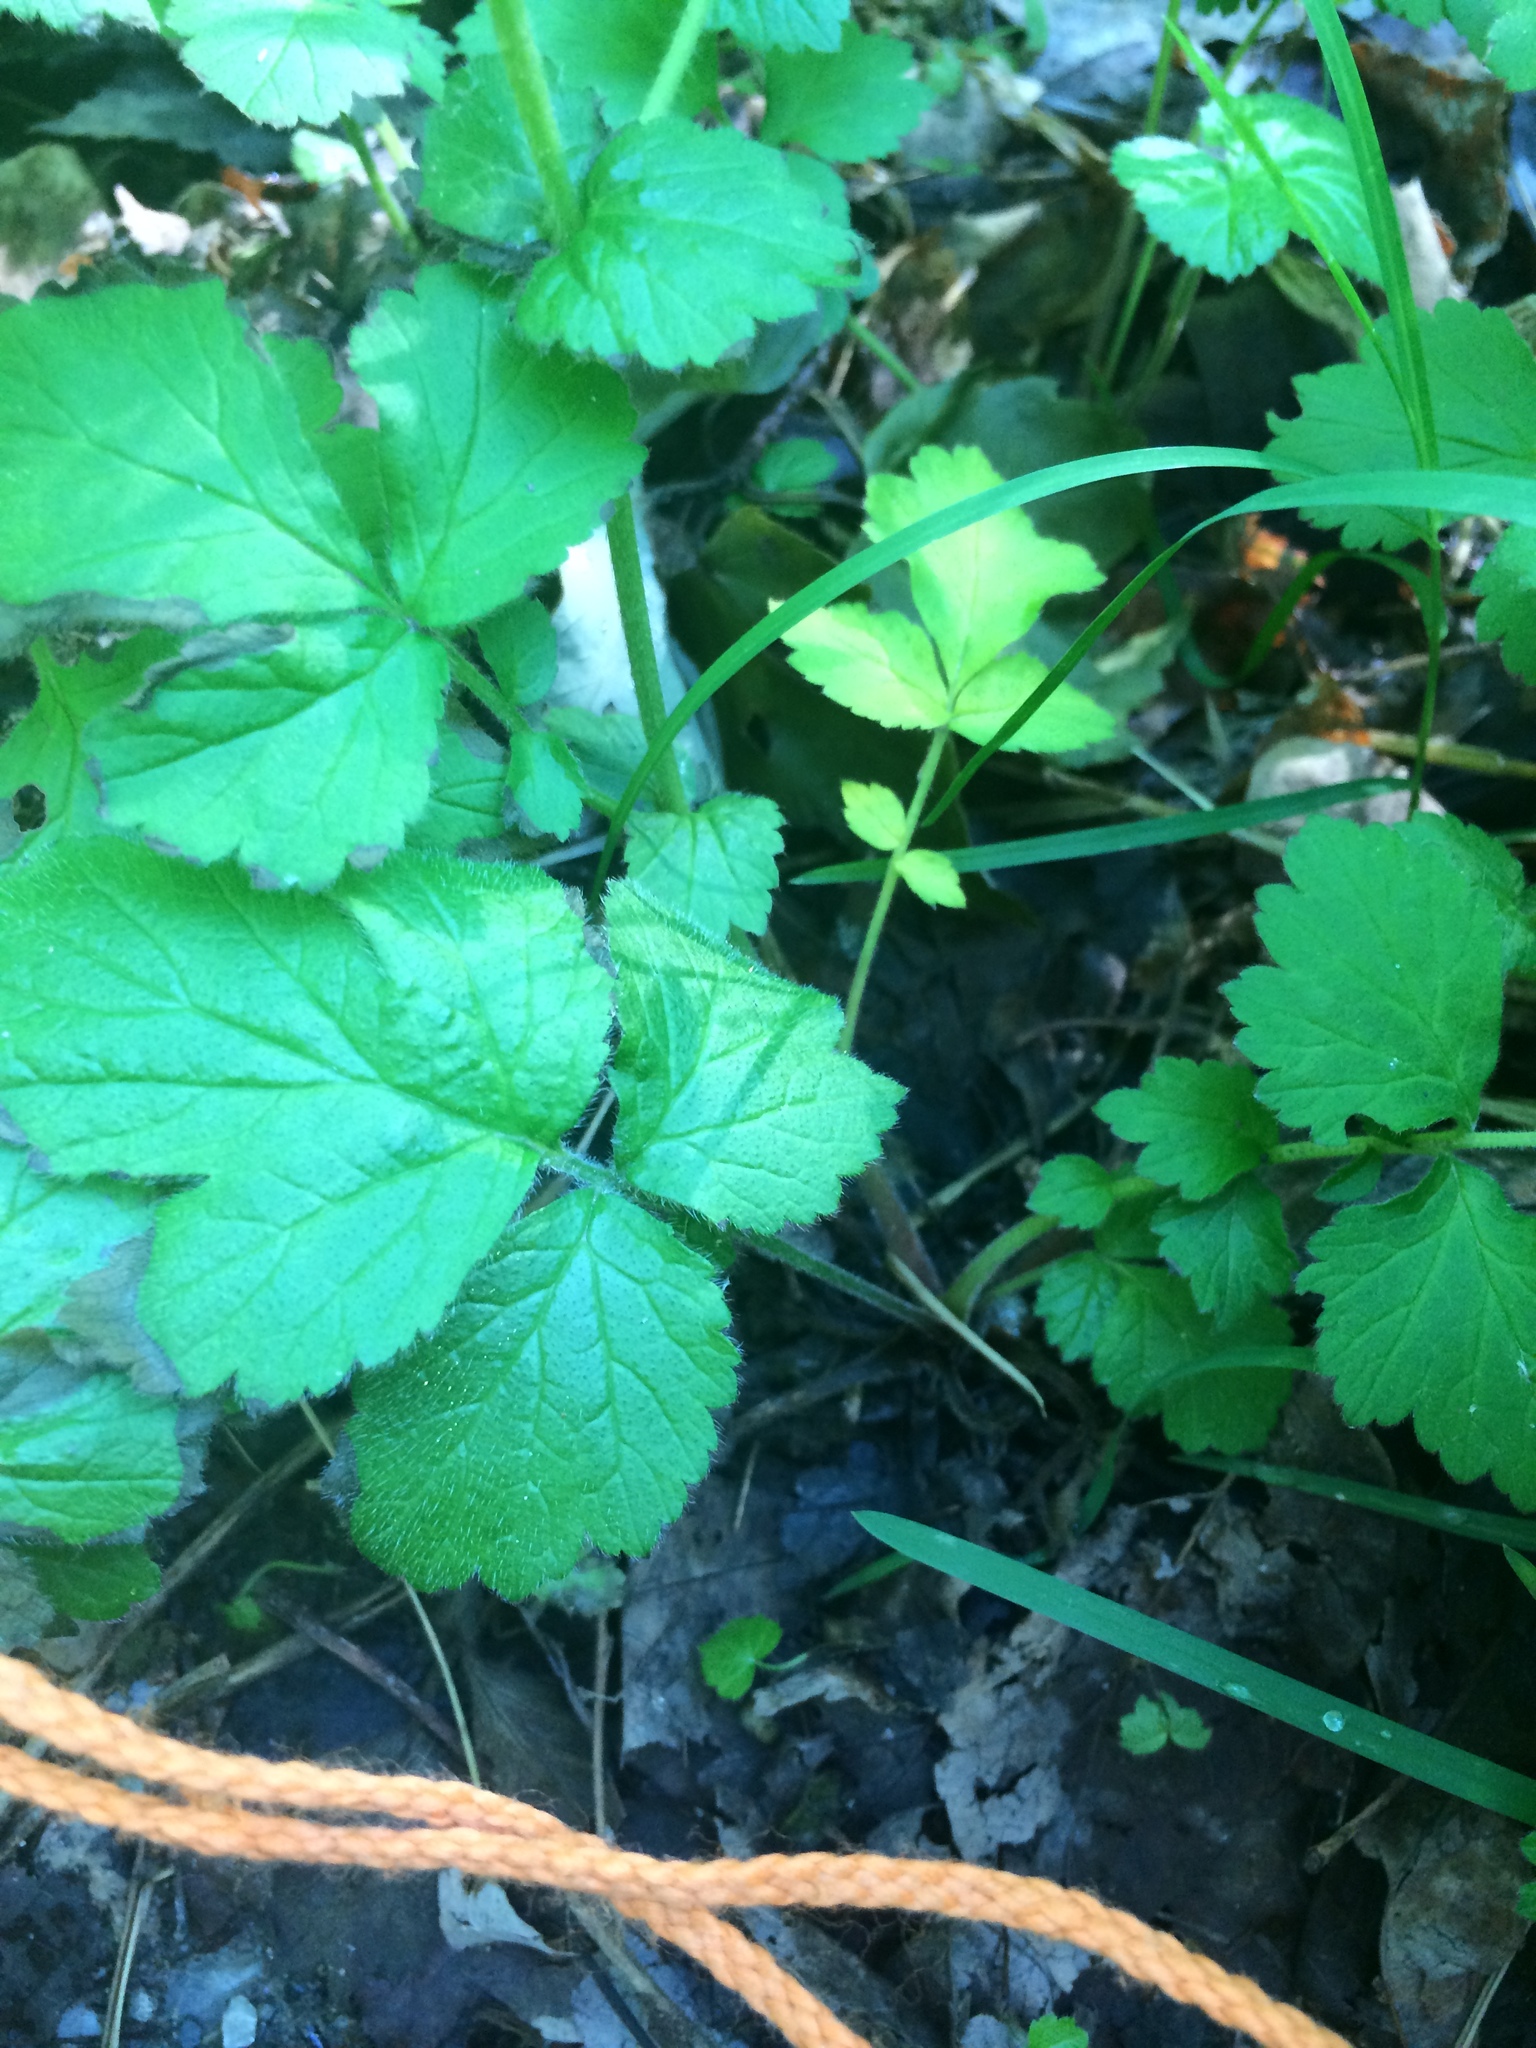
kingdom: Plantae
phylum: Tracheophyta
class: Magnoliopsida
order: Rosales
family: Rosaceae
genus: Geum
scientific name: Geum urbanum
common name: Wood avens
